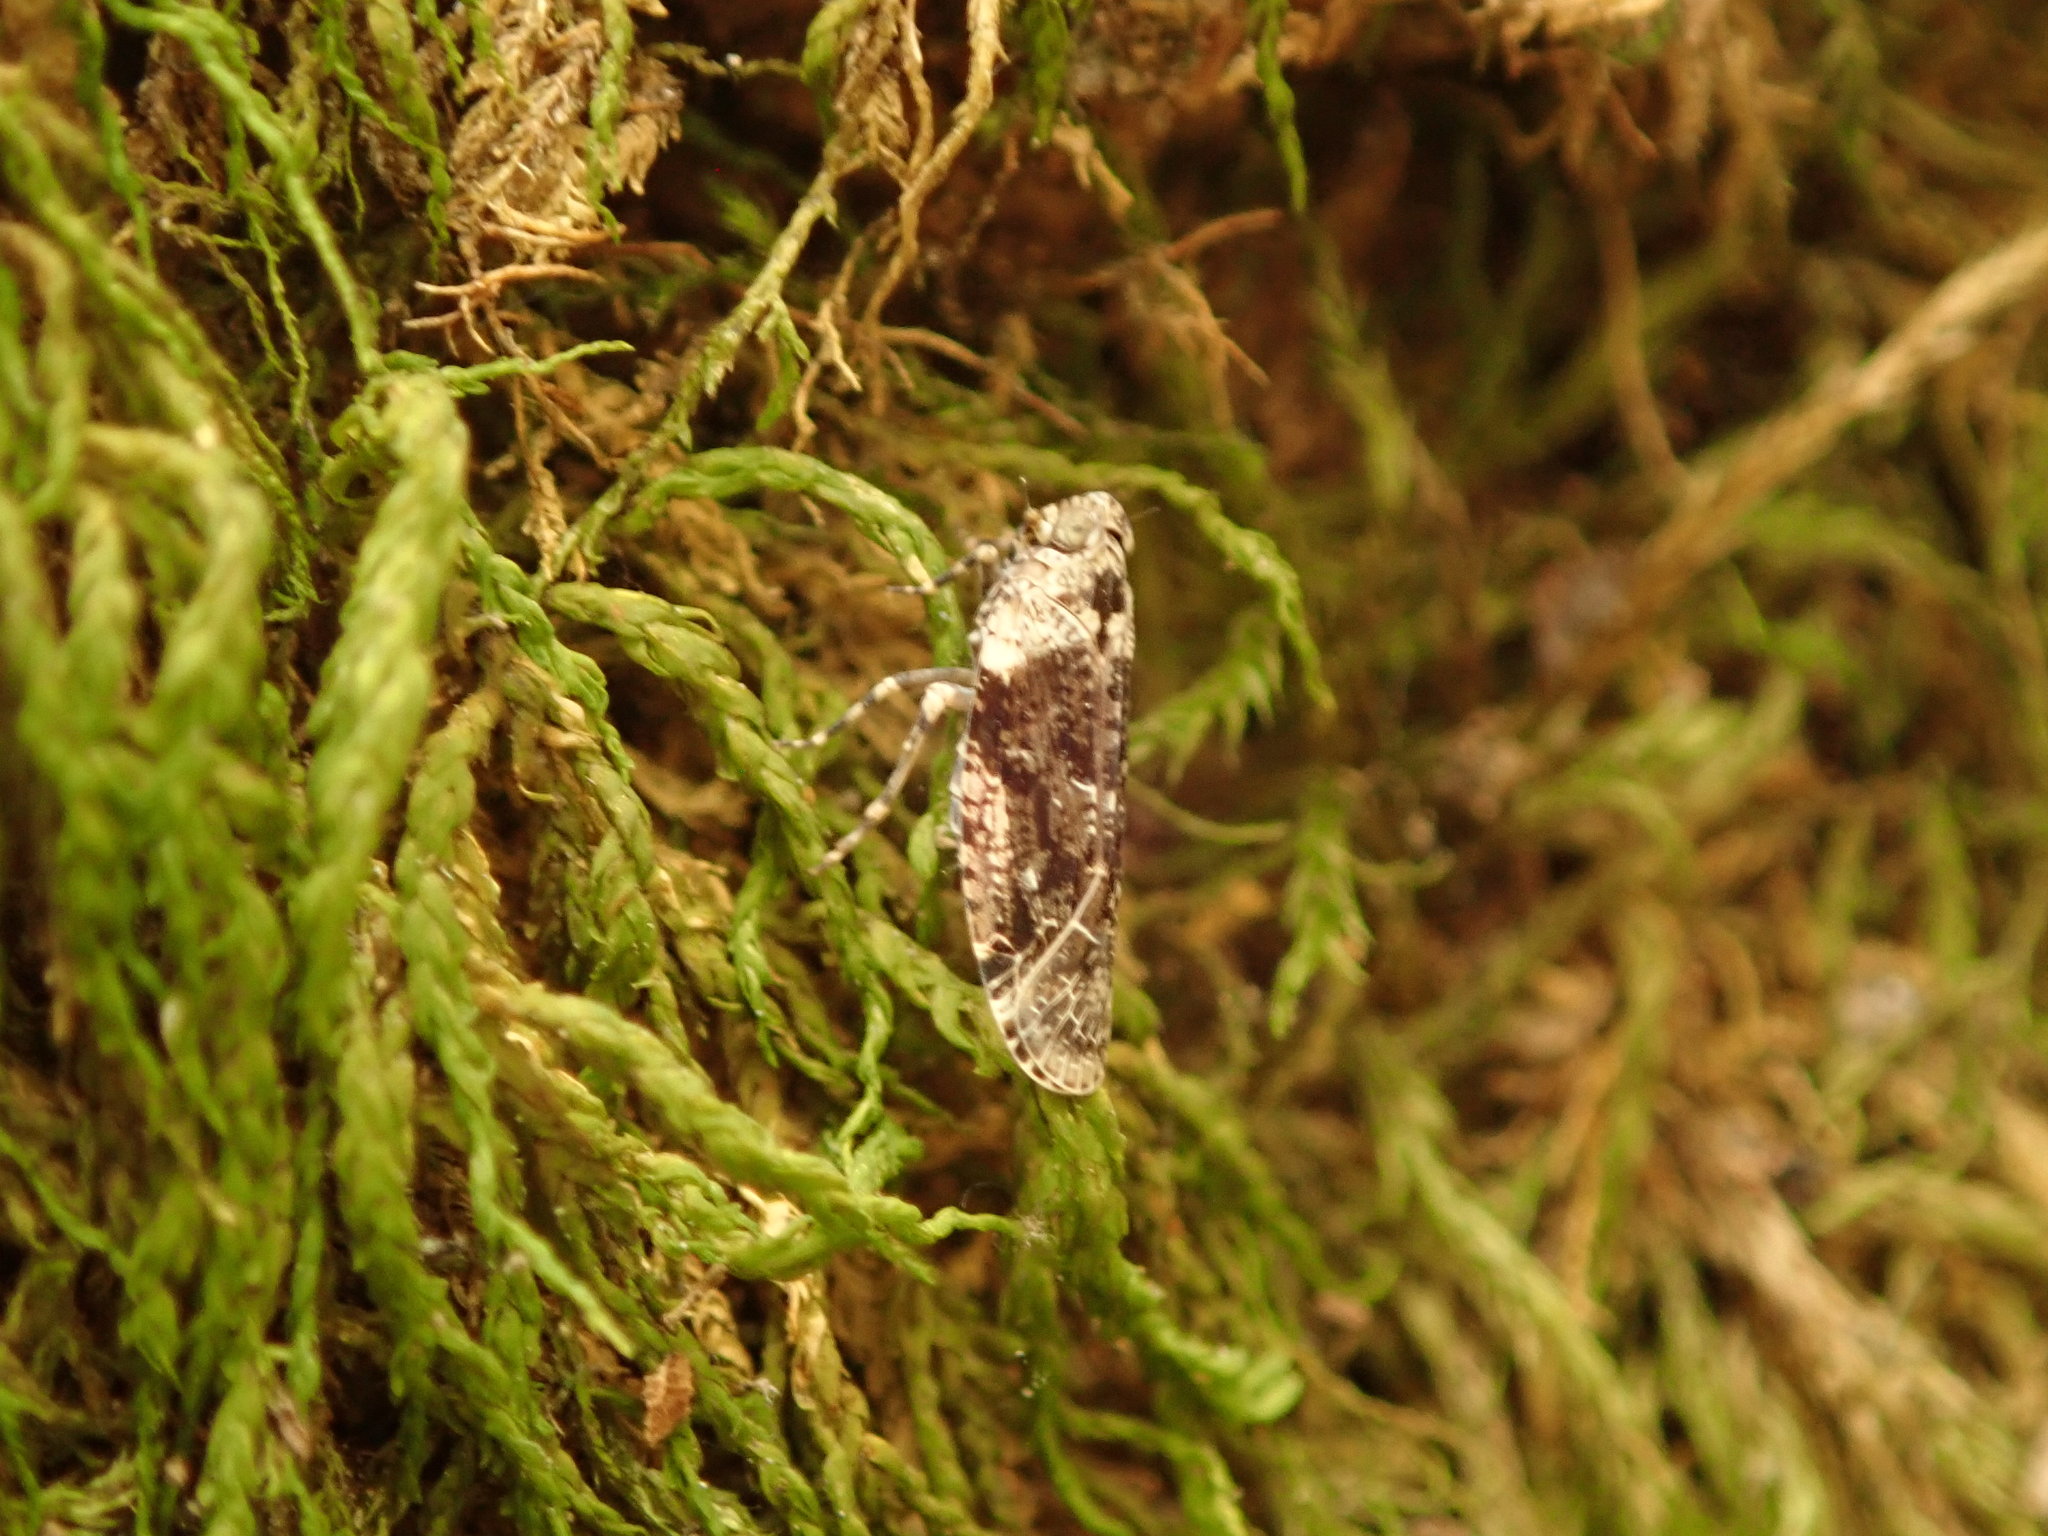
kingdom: Animalia
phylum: Arthropoda
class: Insecta
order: Hemiptera
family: Achilidae
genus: Catonia
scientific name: Catonia nava
